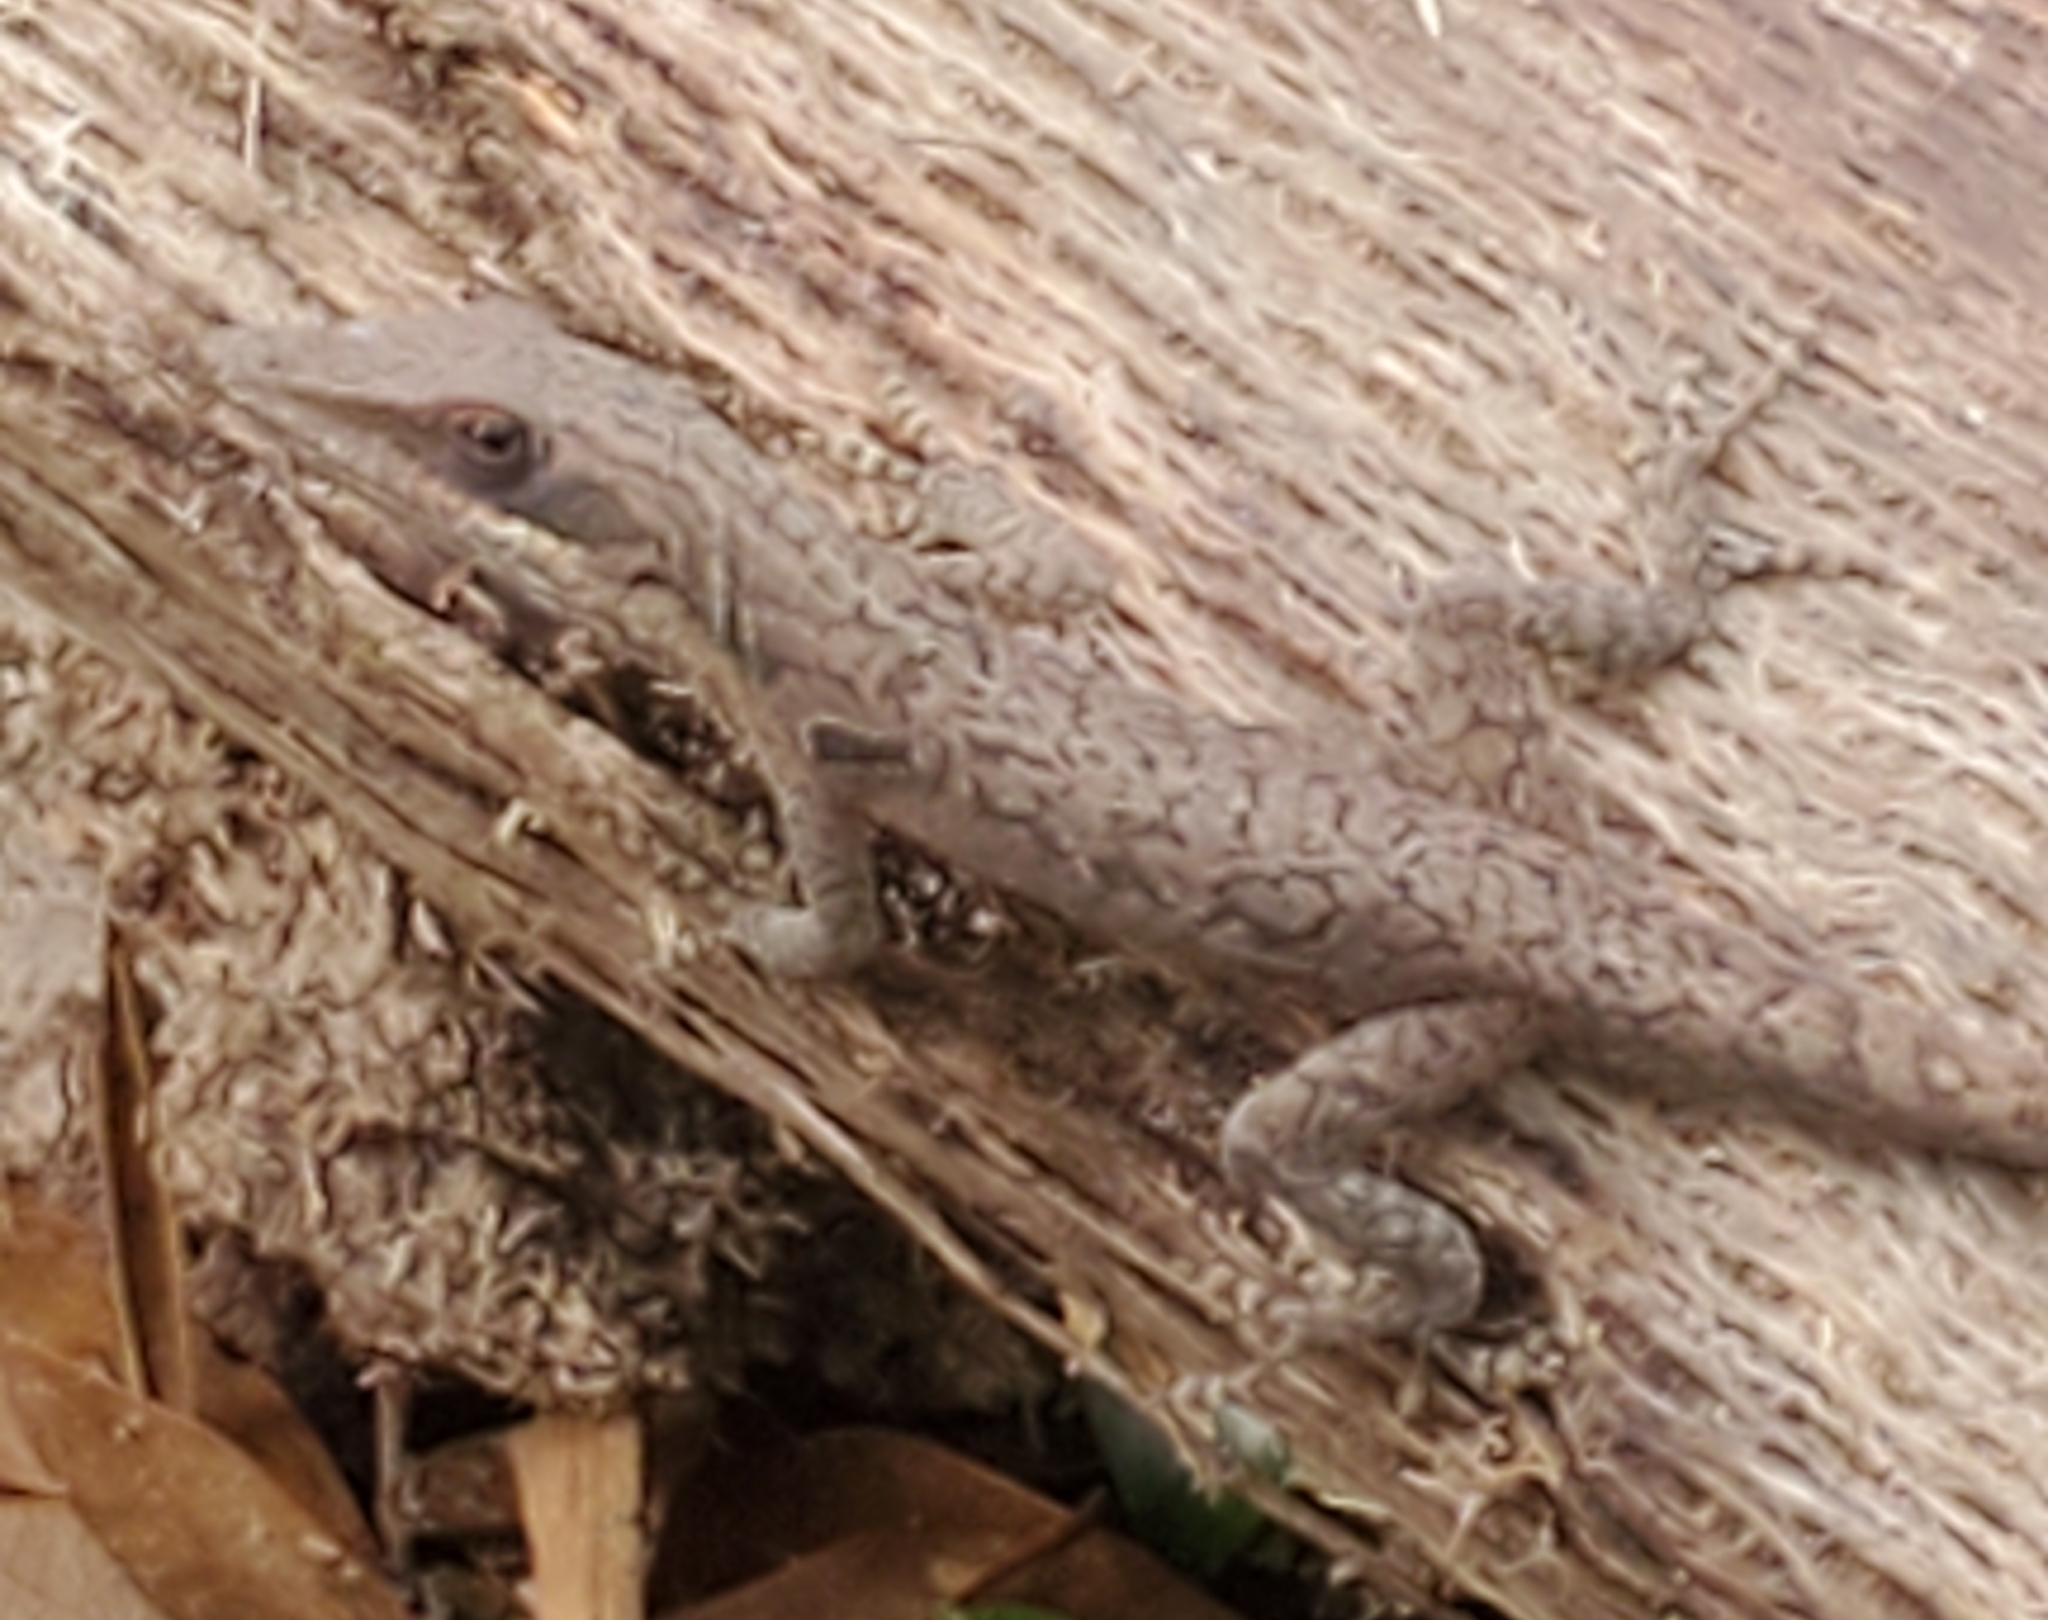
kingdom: Animalia
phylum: Chordata
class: Squamata
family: Dactyloidae
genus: Anolis
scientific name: Anolis carolinensis
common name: Green anole
